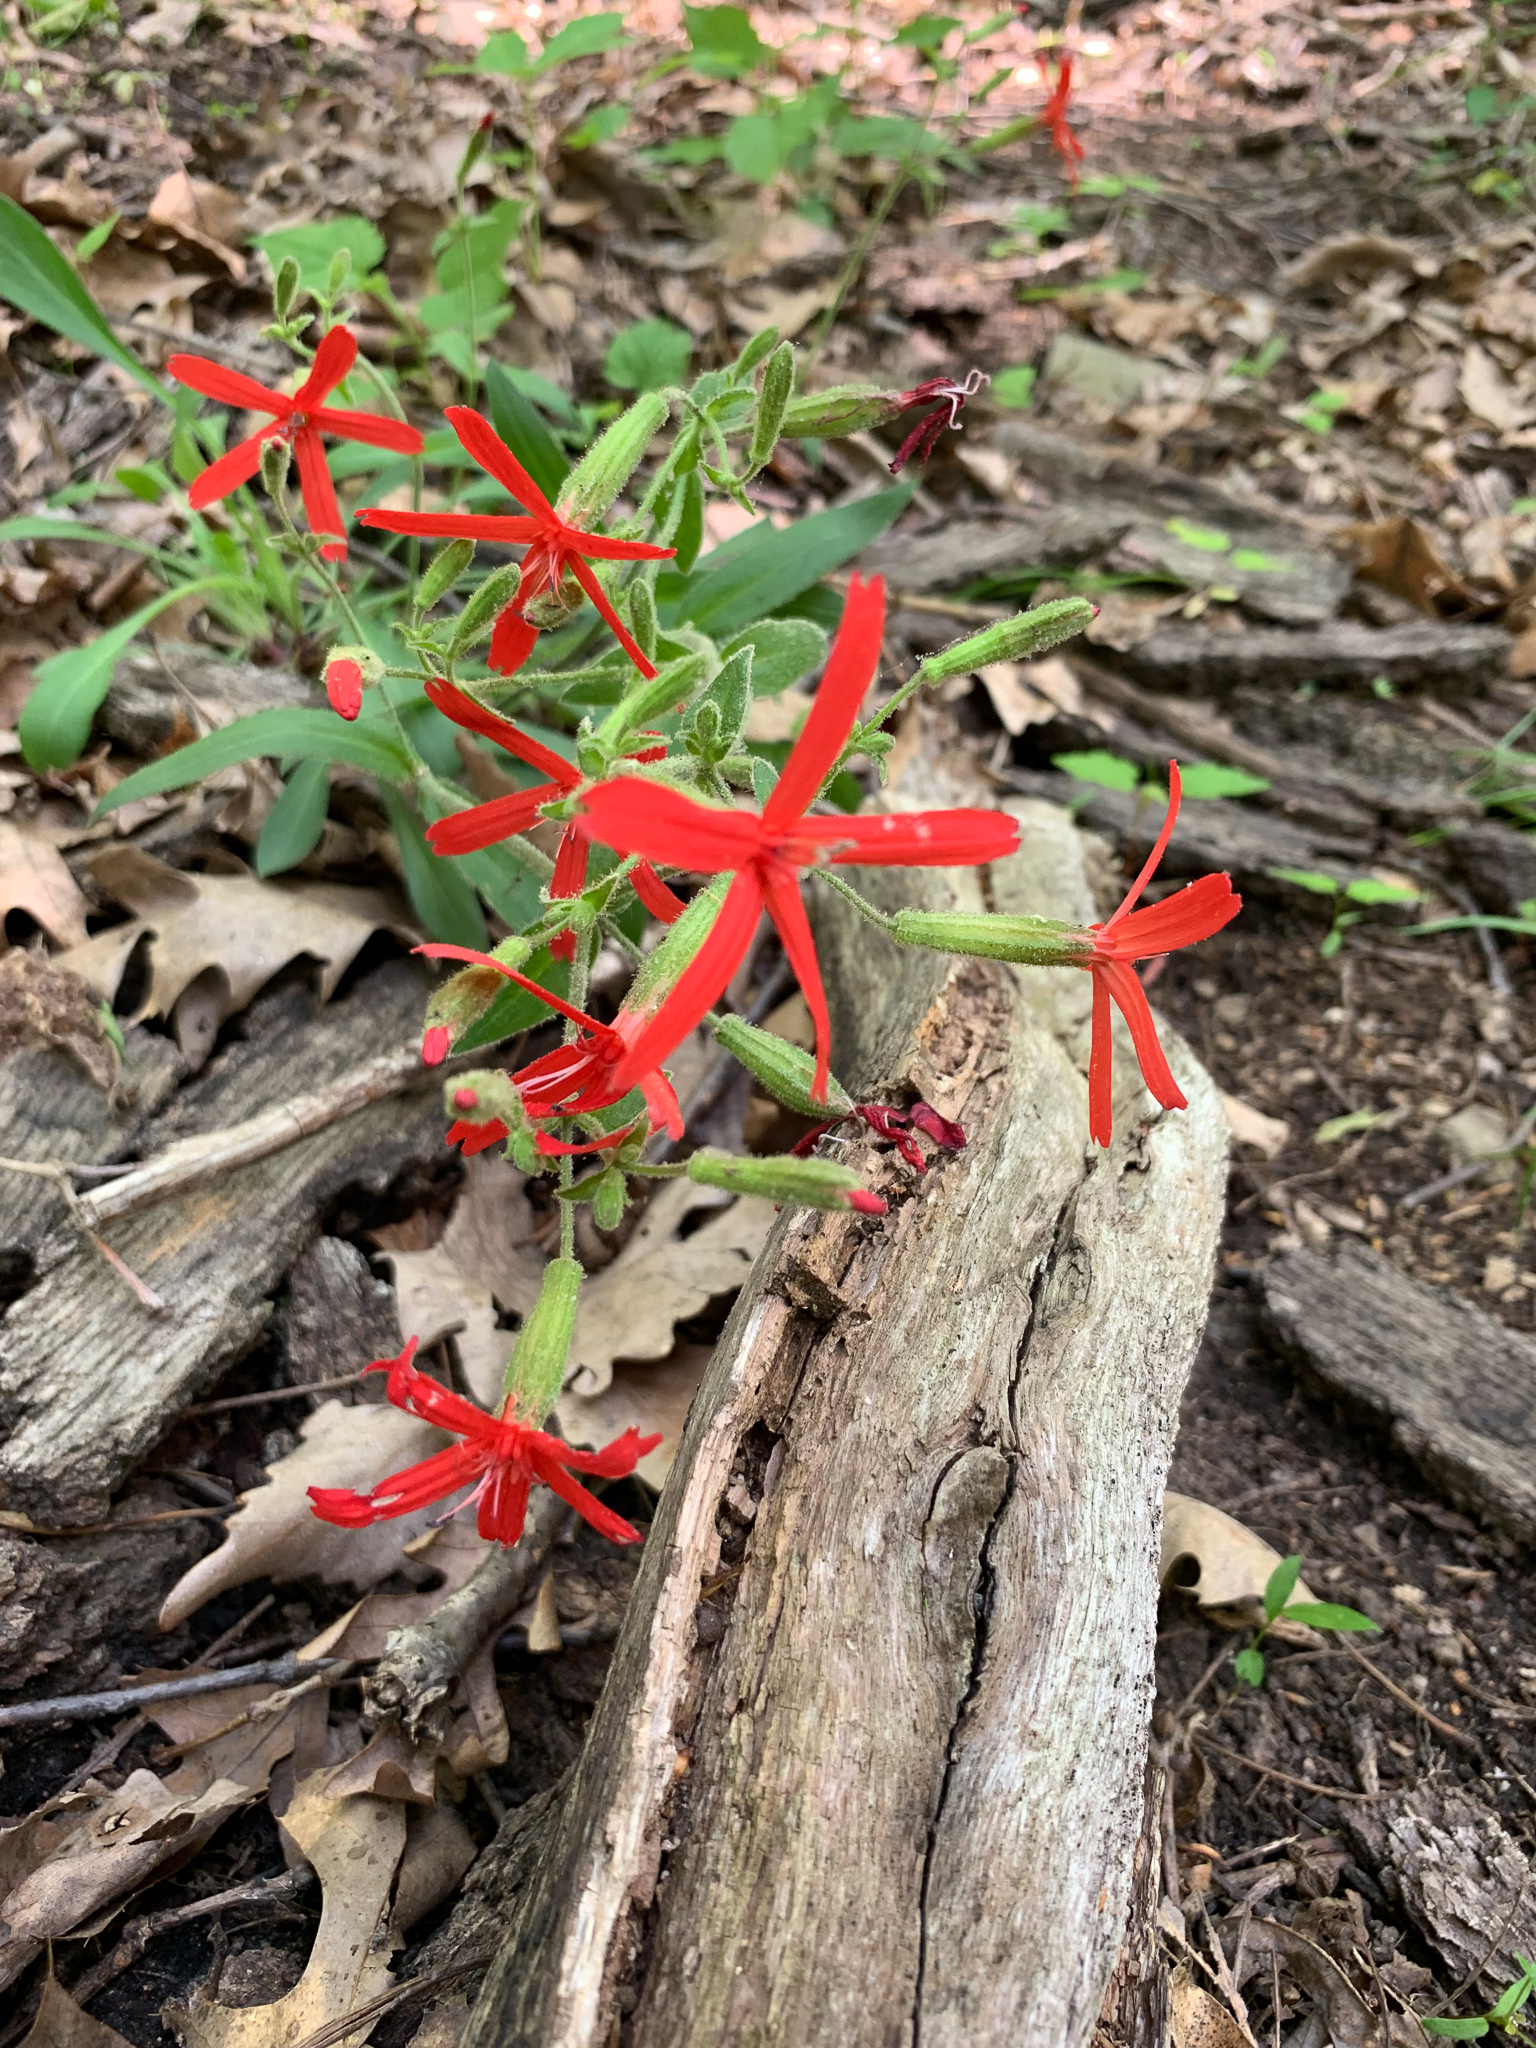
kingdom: Plantae
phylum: Tracheophyta
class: Magnoliopsida
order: Caryophyllales
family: Caryophyllaceae
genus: Silene
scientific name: Silene virginica
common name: Fire-pink
